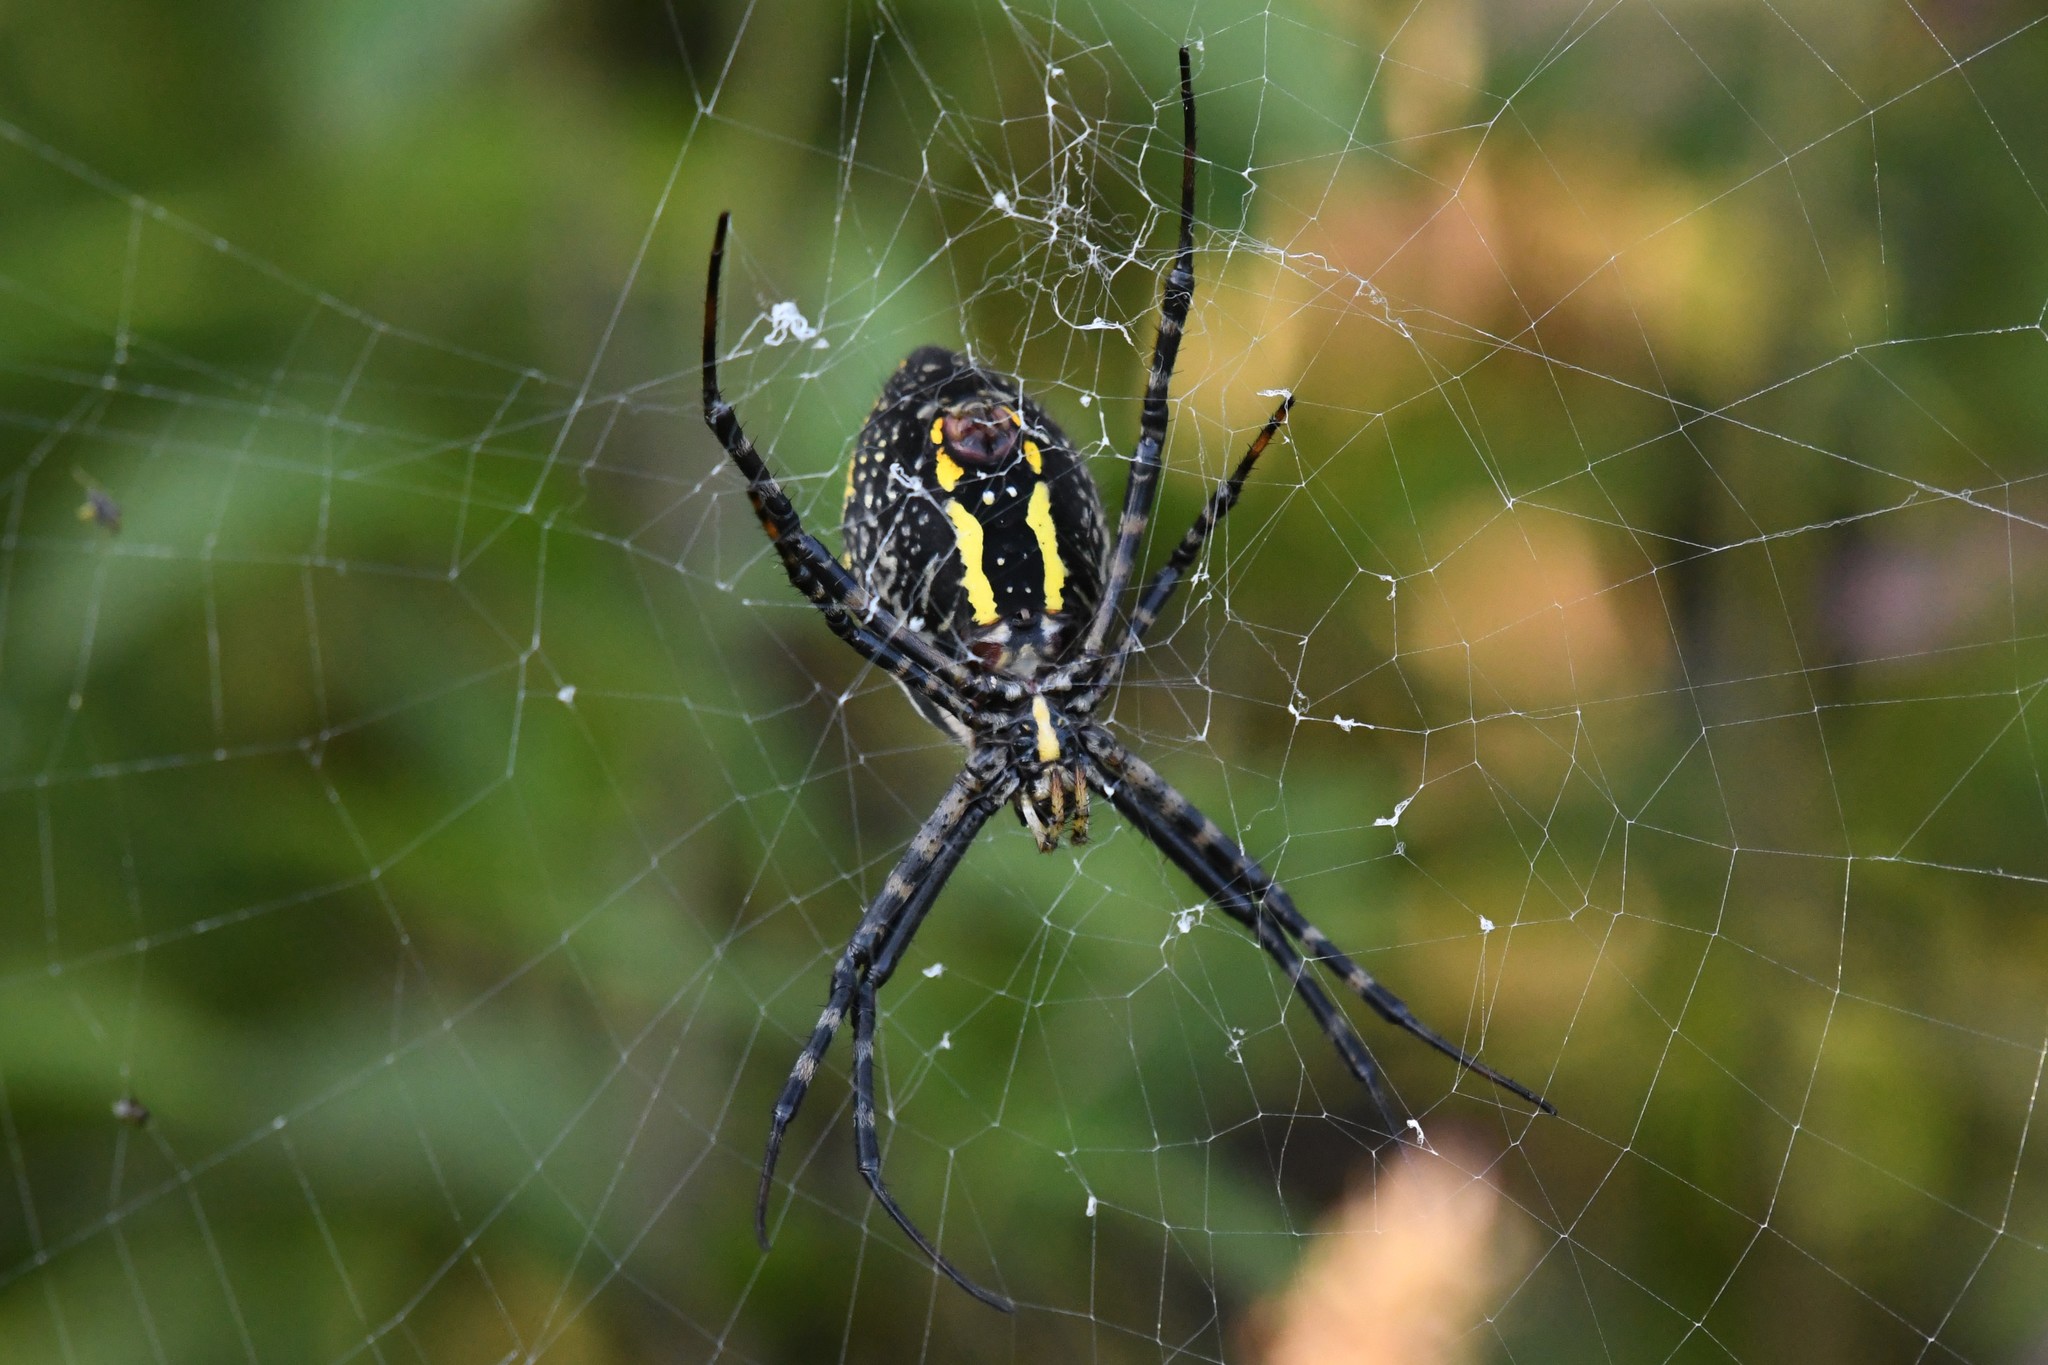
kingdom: Animalia
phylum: Arthropoda
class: Arachnida
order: Araneae
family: Araneidae
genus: Argiope
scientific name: Argiope trifasciata
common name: Banded garden spider
